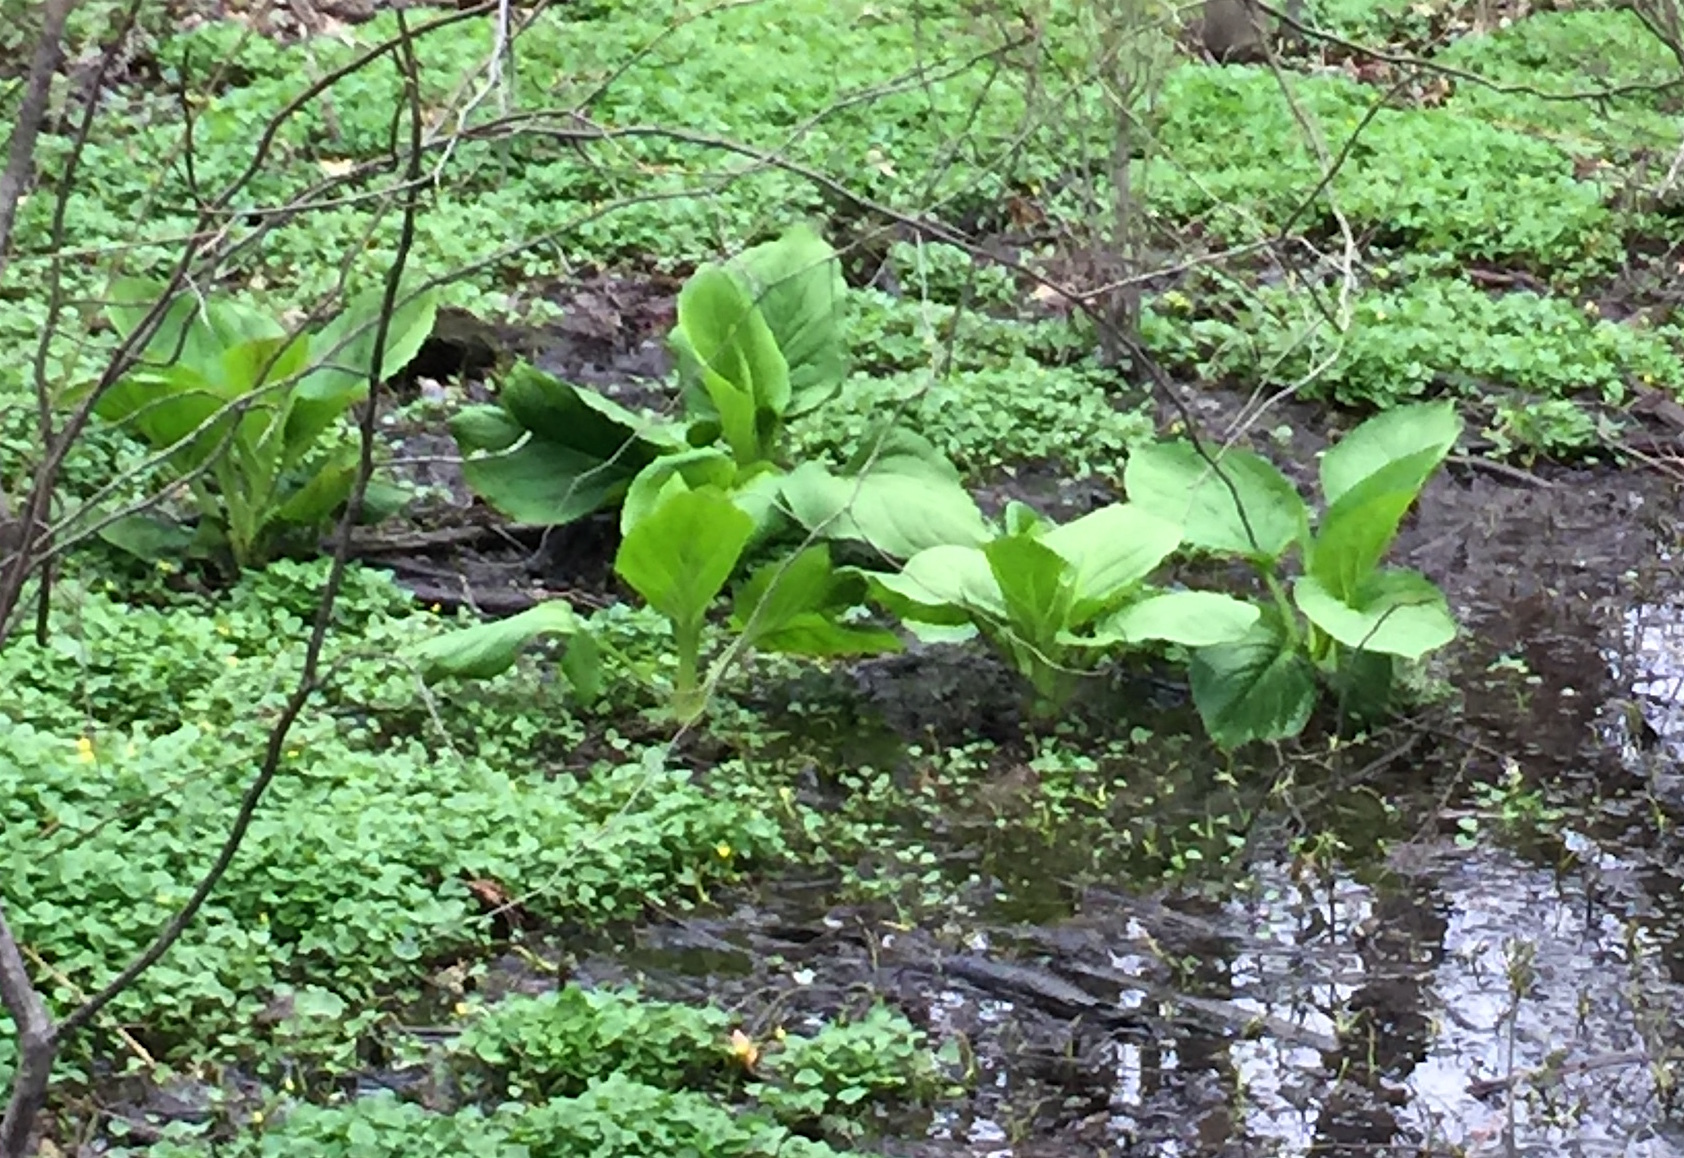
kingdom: Plantae
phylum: Tracheophyta
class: Liliopsida
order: Alismatales
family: Araceae
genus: Symplocarpus
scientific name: Symplocarpus foetidus
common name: Eastern skunk cabbage
